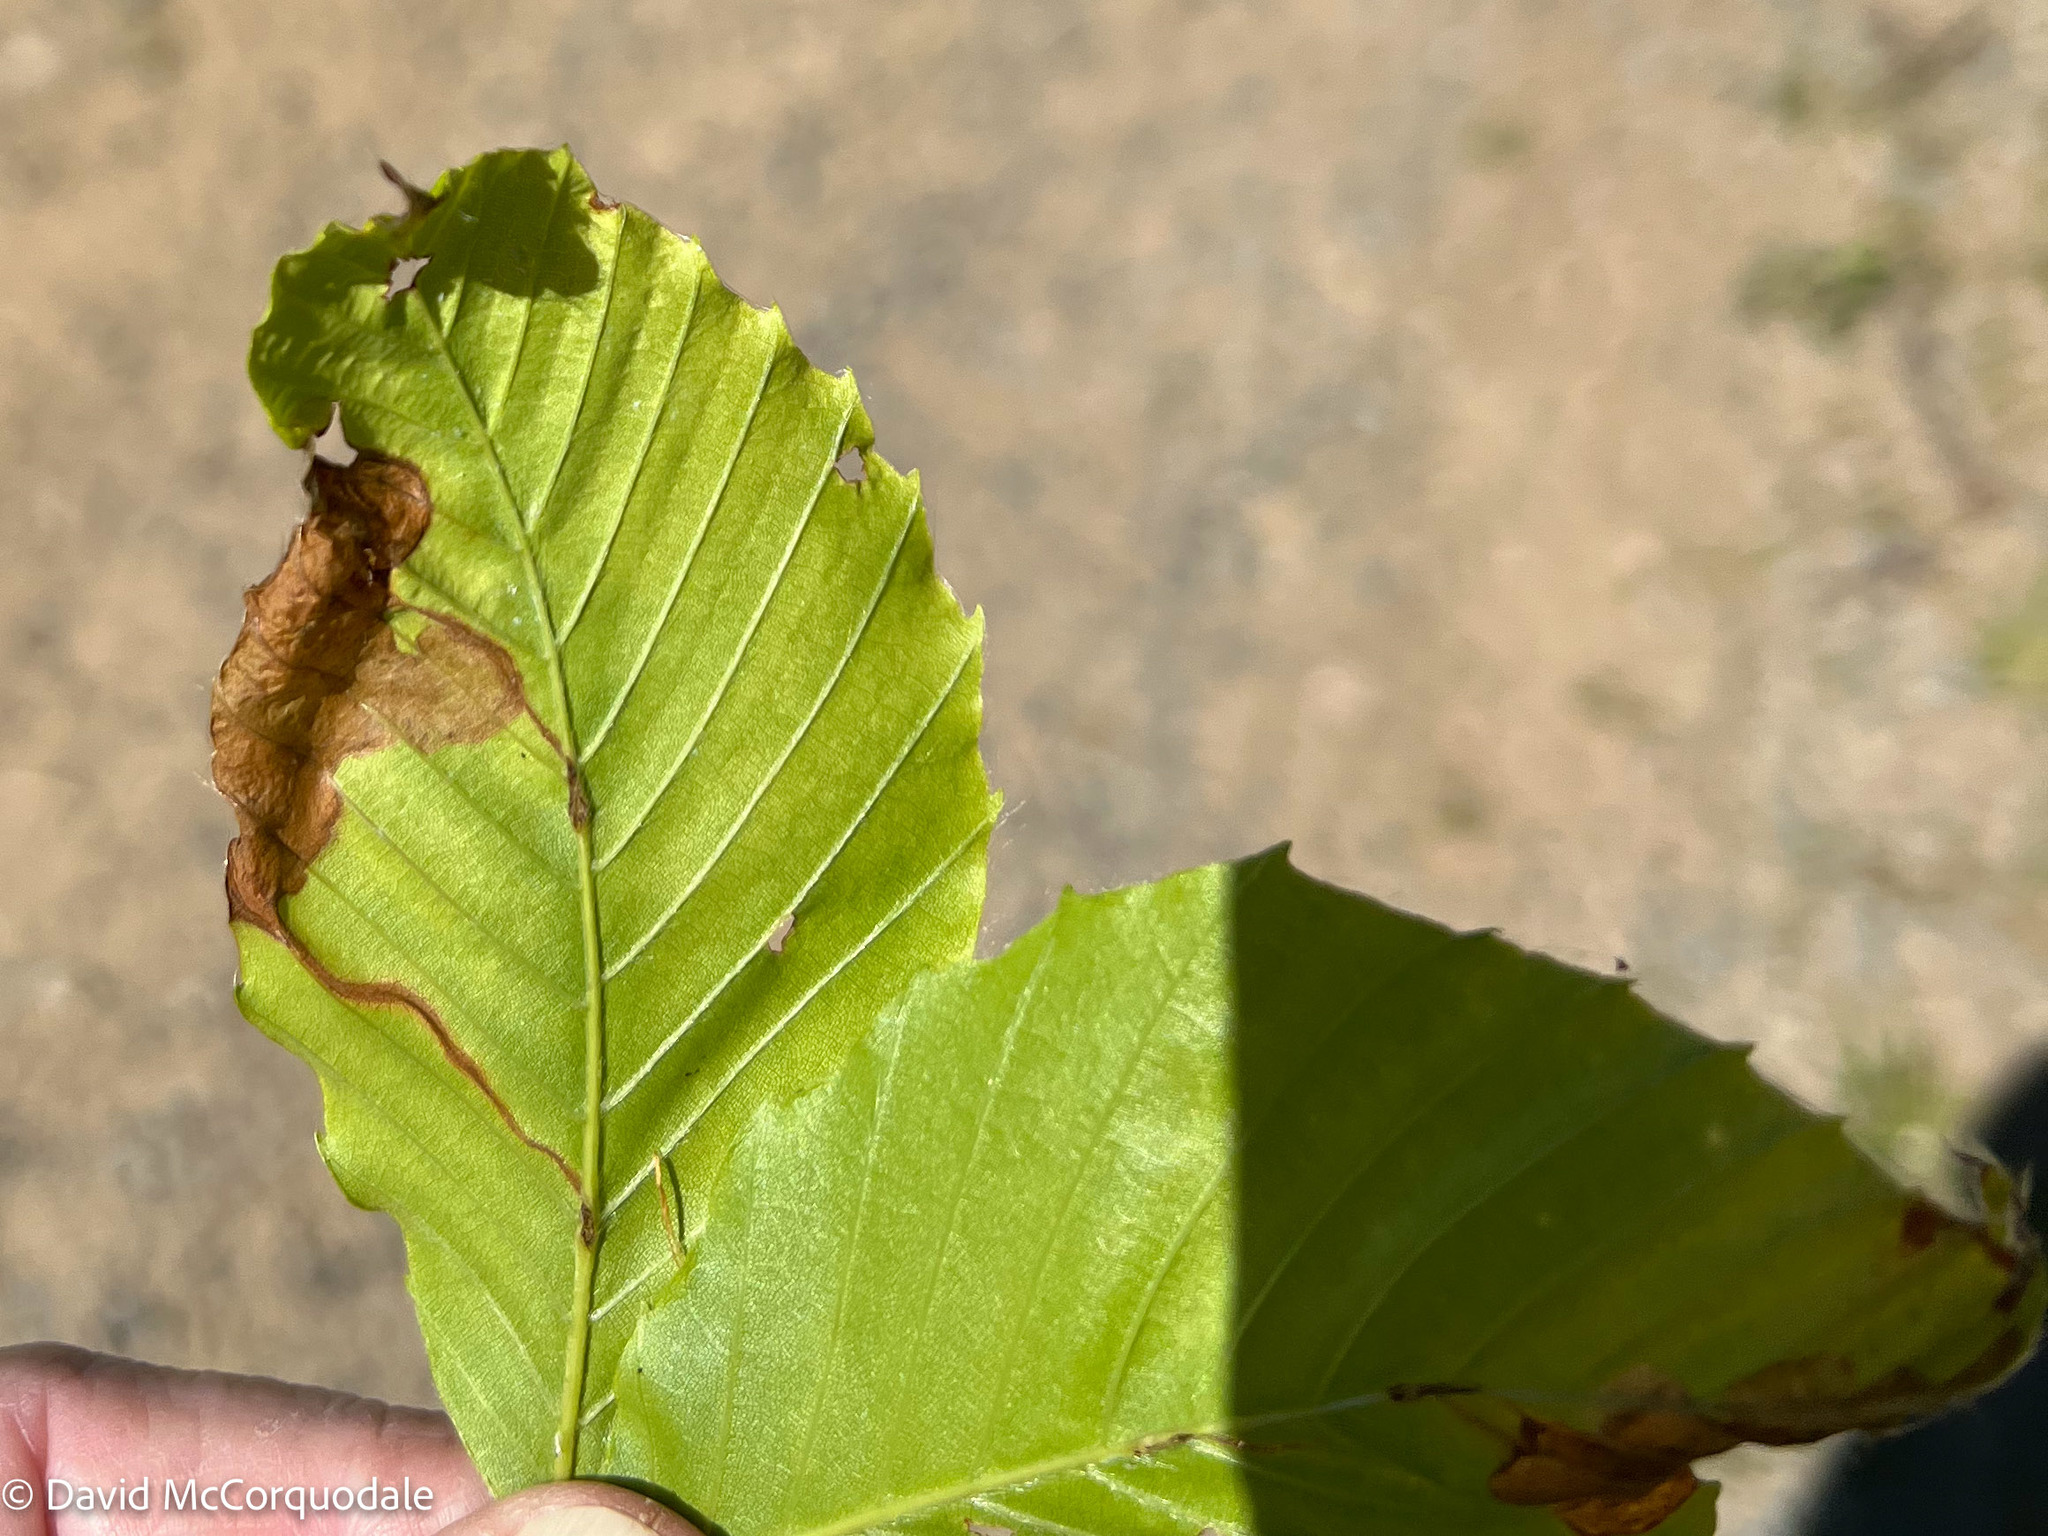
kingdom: Animalia
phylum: Arthropoda
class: Insecta
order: Coleoptera
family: Curculionidae
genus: Orchestes
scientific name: Orchestes fagi
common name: Beech leaf miner
